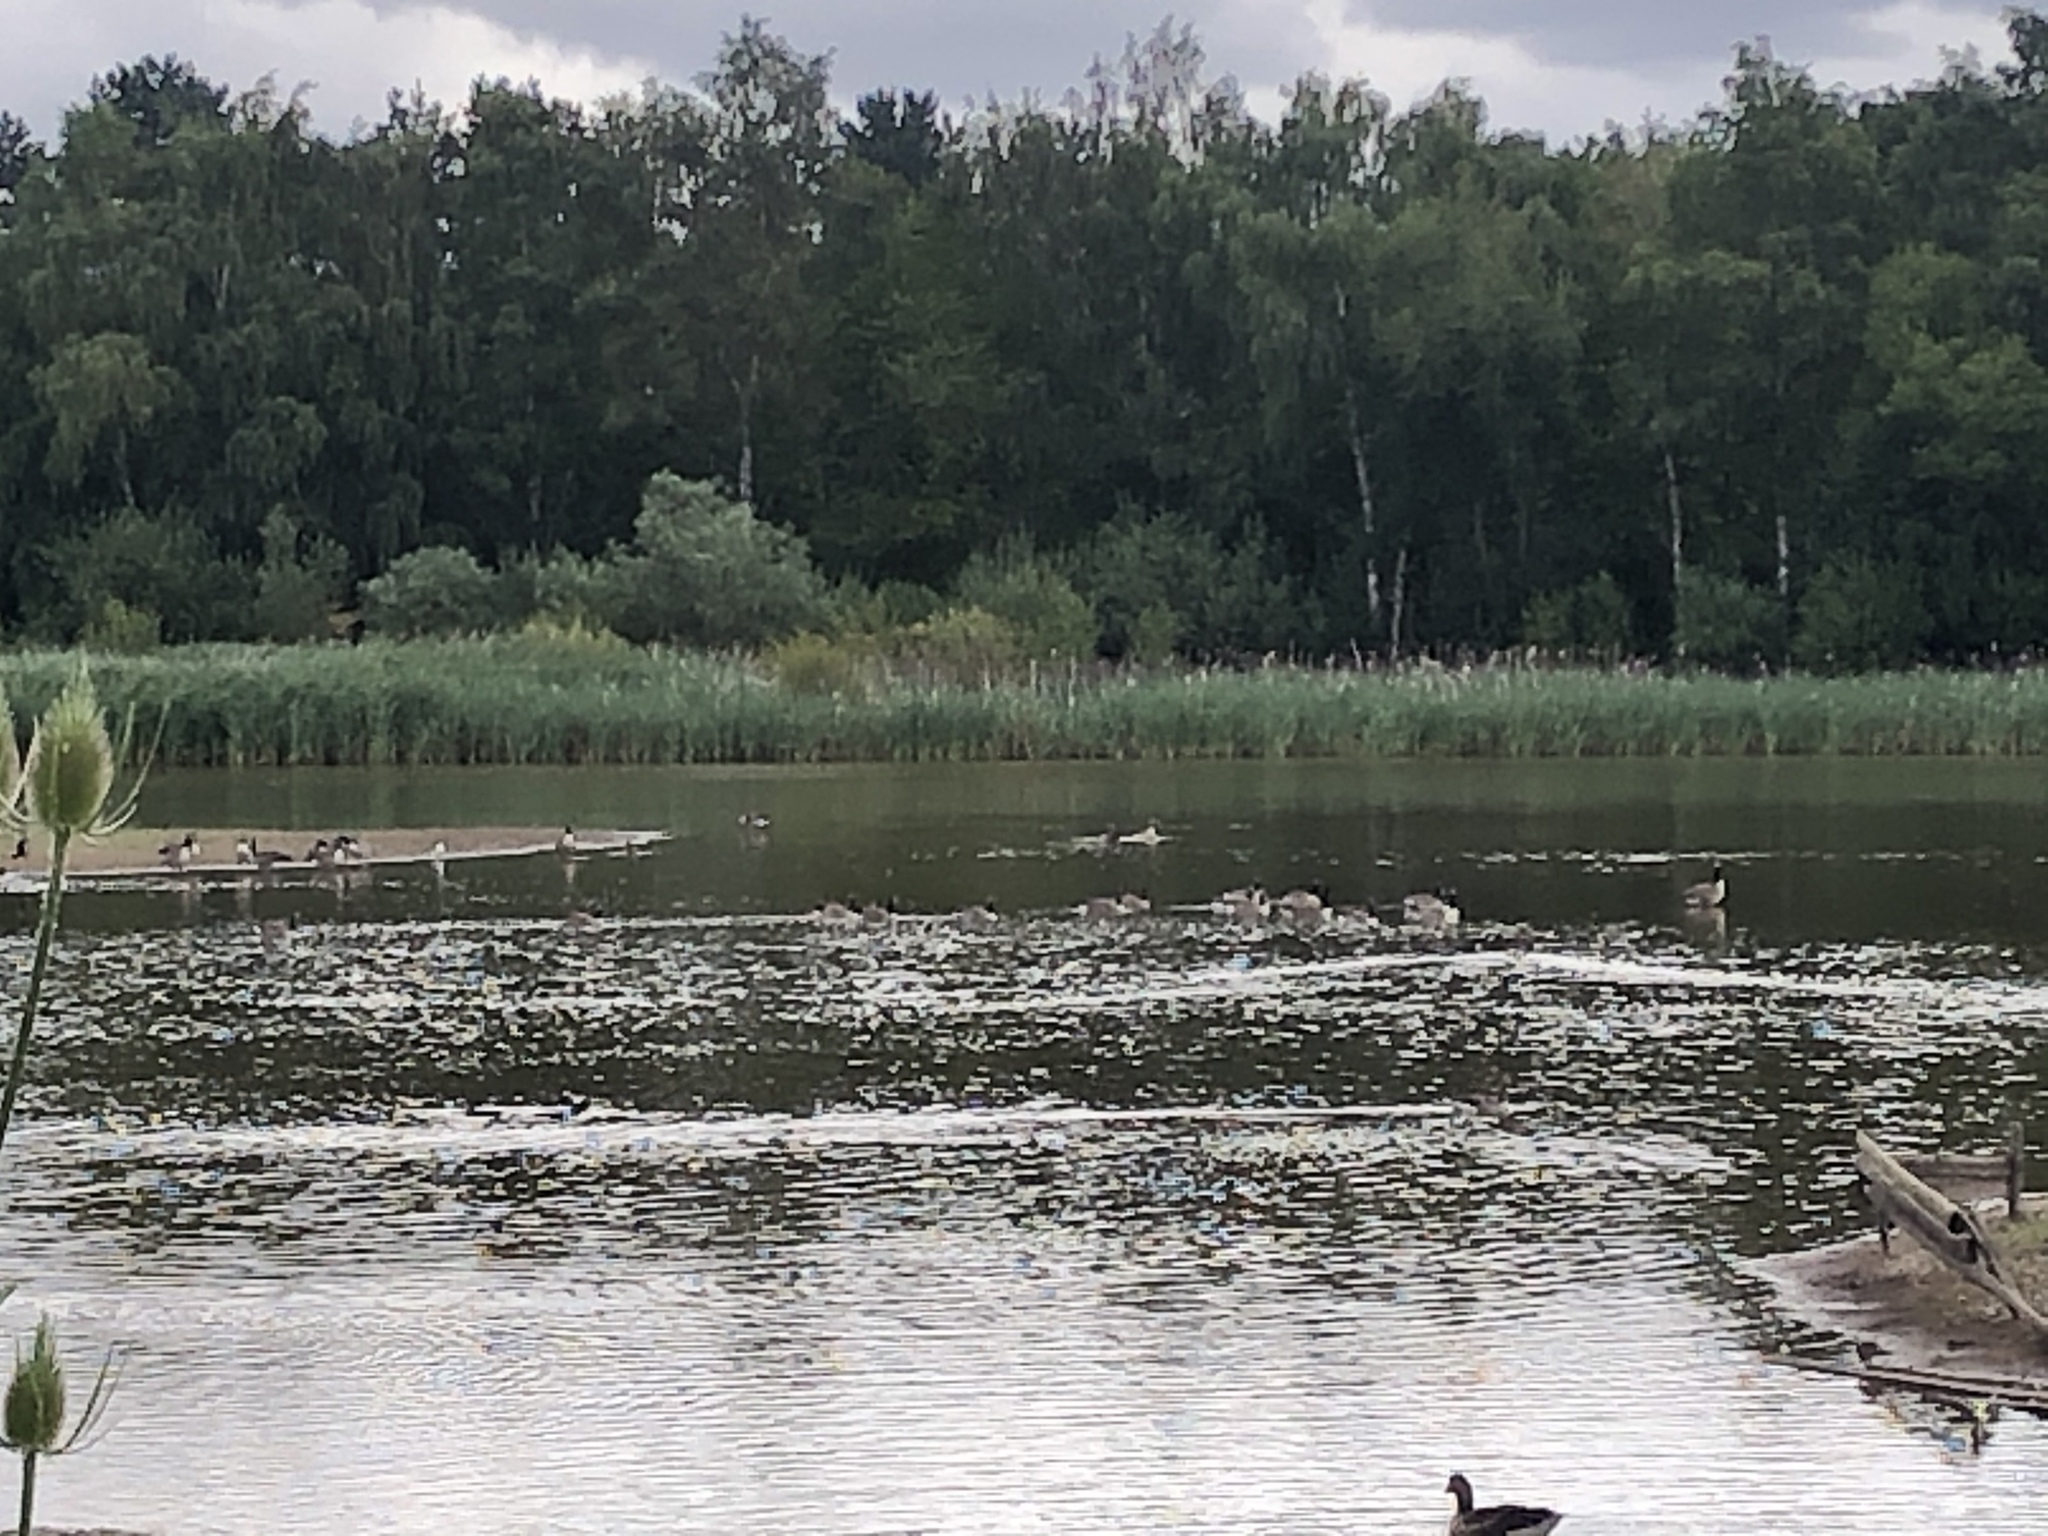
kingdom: Animalia
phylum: Chordata
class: Aves
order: Anseriformes
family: Anatidae
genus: Branta
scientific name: Branta canadensis
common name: Canada goose
